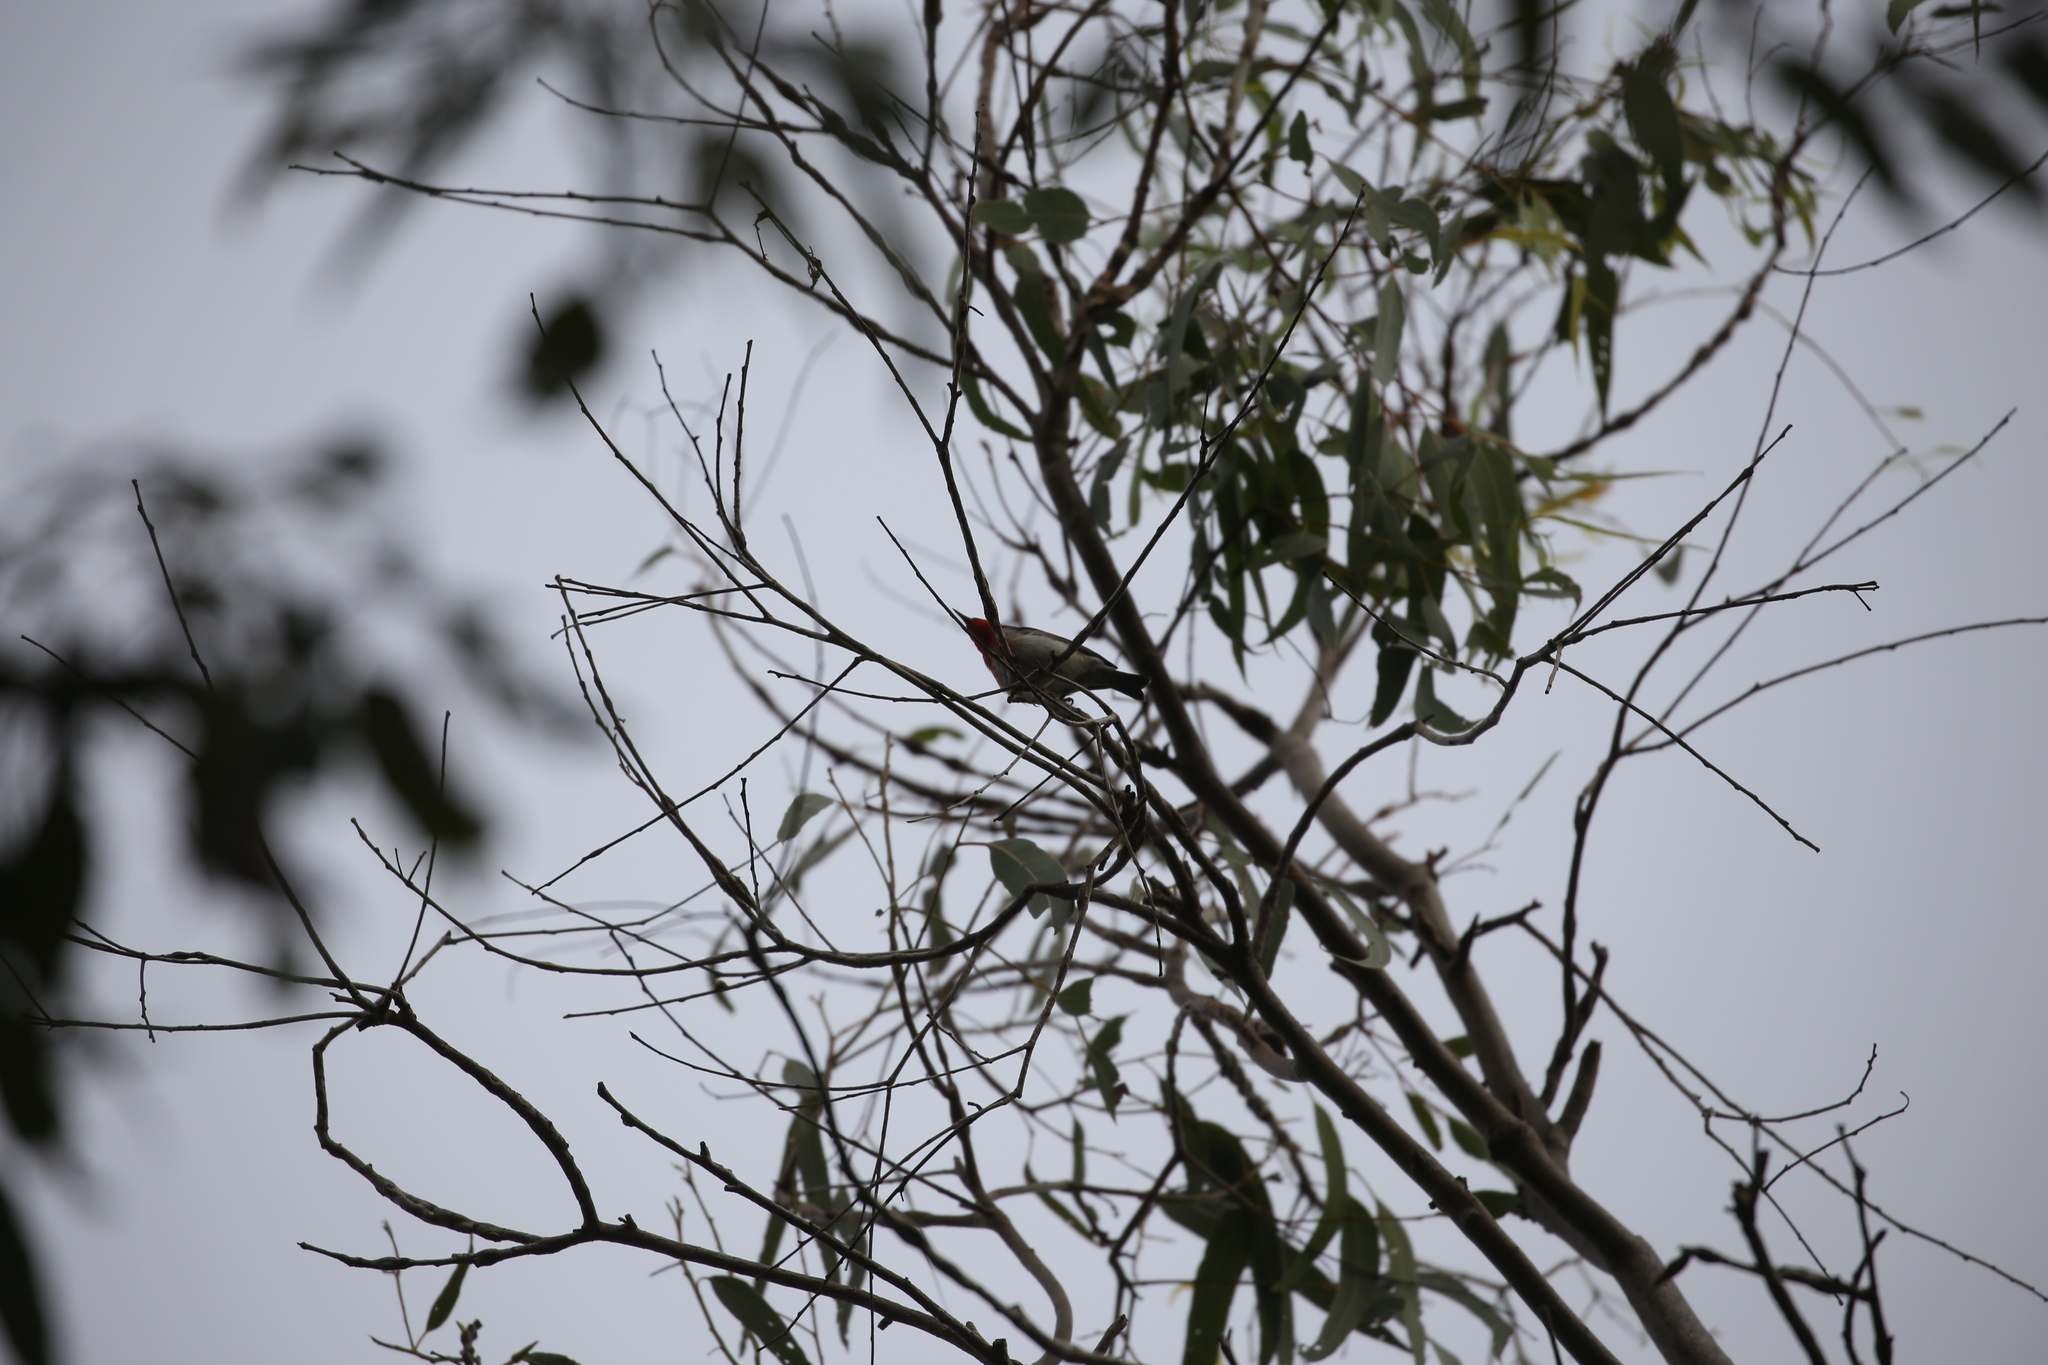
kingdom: Animalia
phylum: Chordata
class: Aves
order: Passeriformes
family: Meliphagidae
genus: Myzomela
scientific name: Myzomela sanguinolenta
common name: Scarlet myzomela
